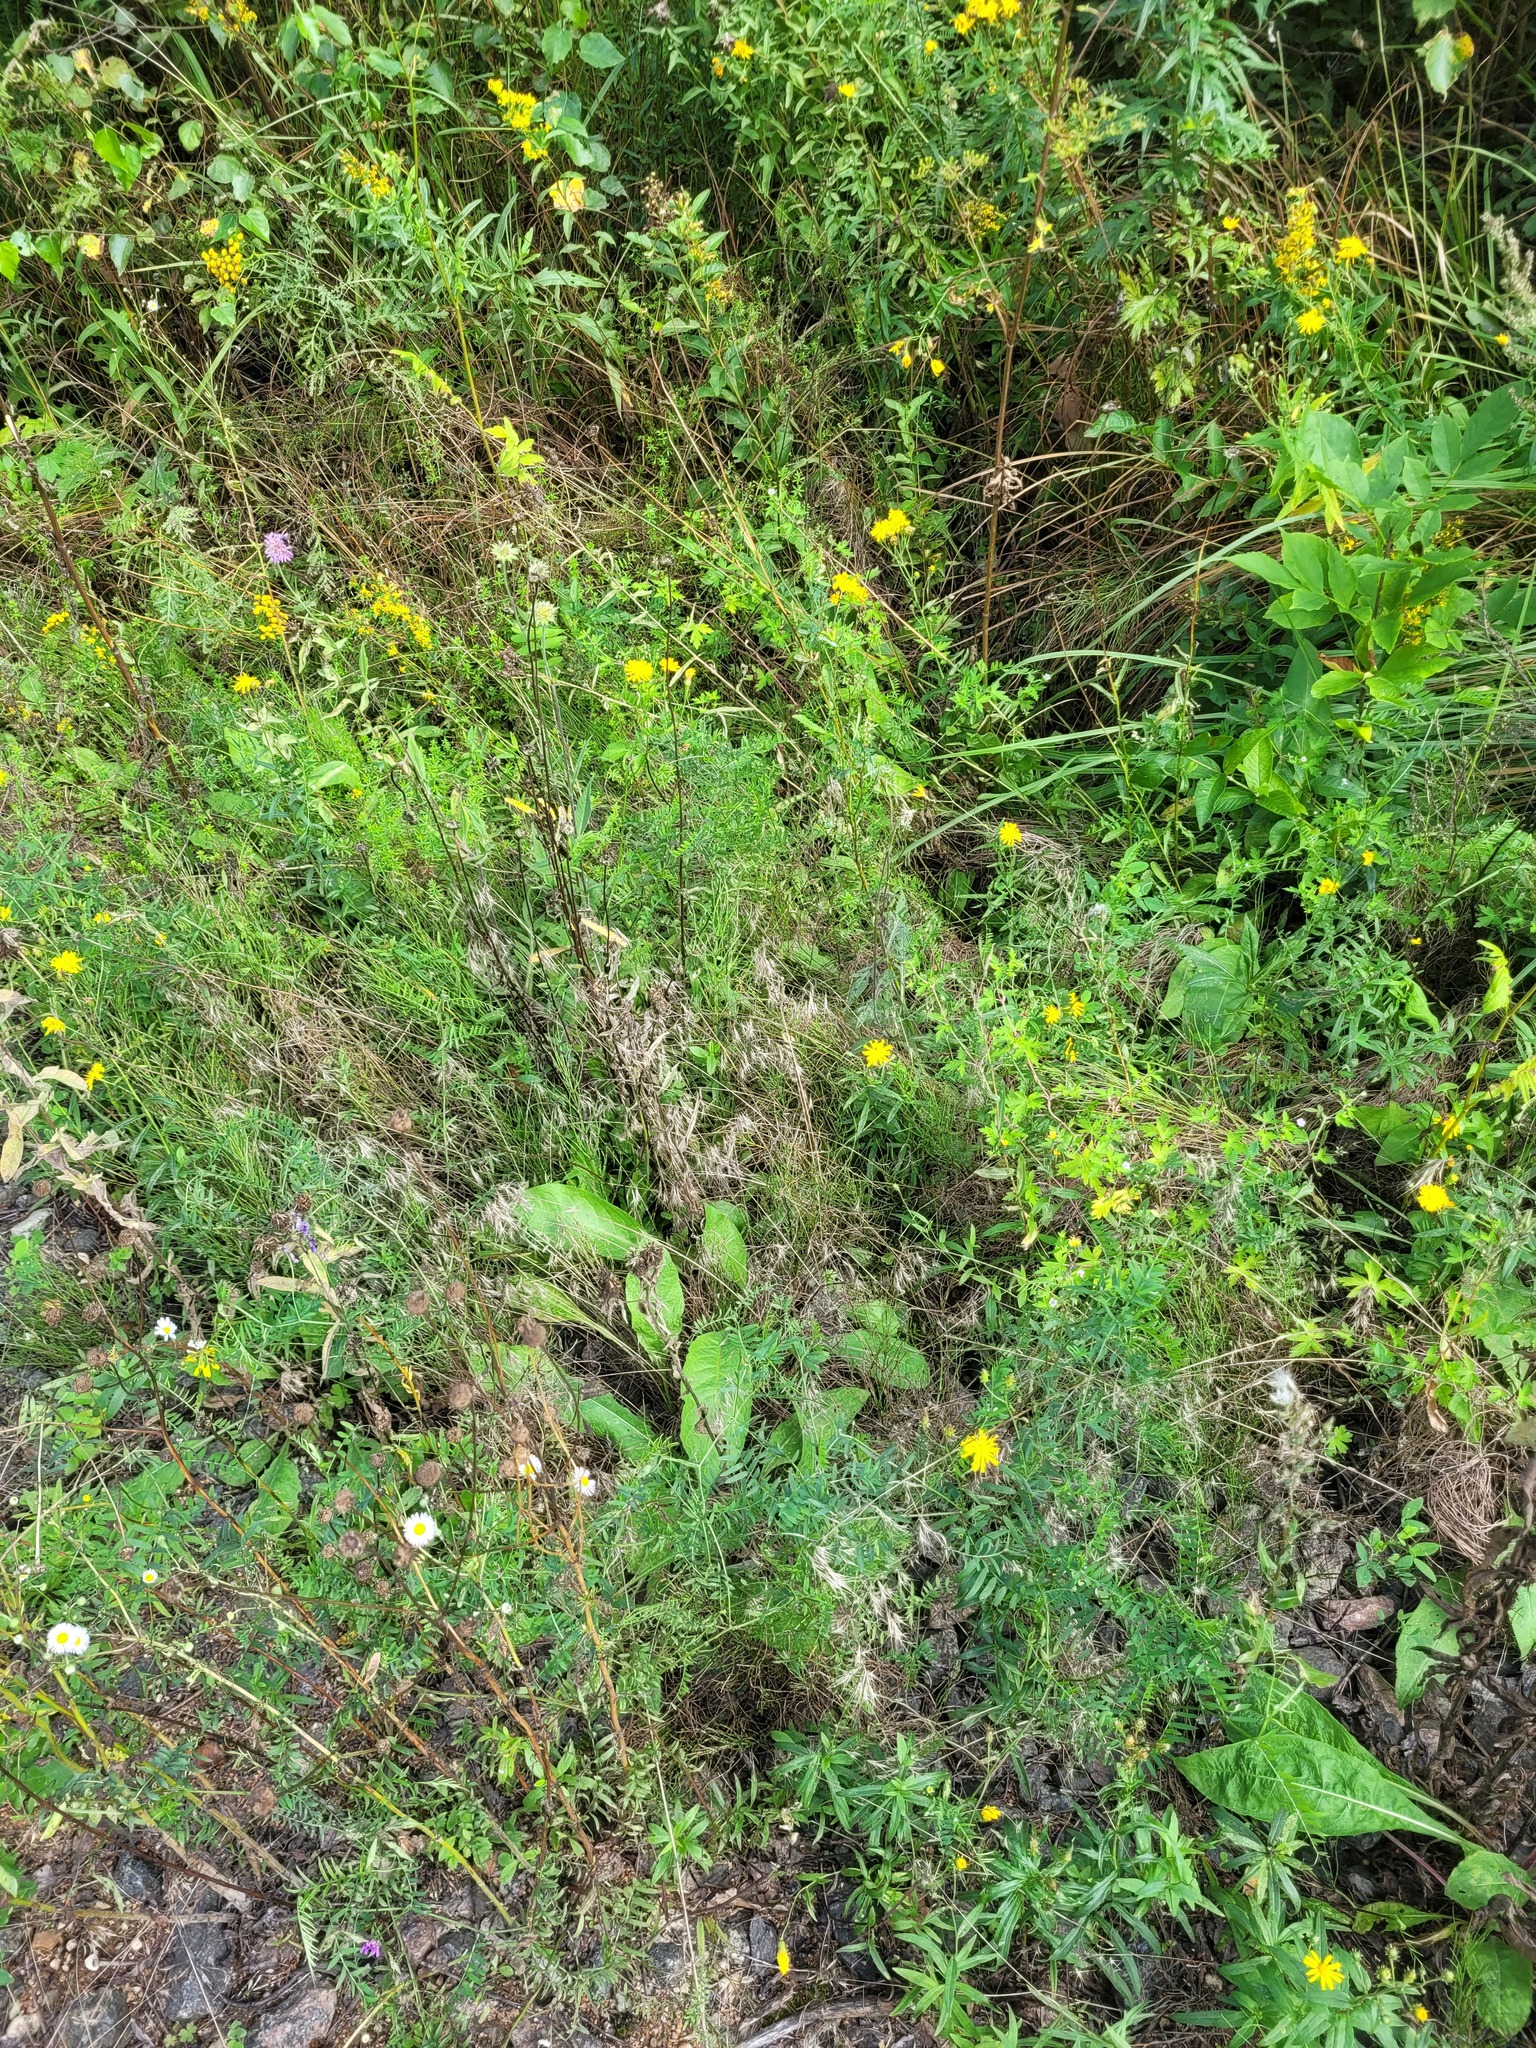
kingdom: Plantae
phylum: Tracheophyta
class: Liliopsida
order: Poales
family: Poaceae
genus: Bromus
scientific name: Bromus tectorum
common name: Cheatgrass
